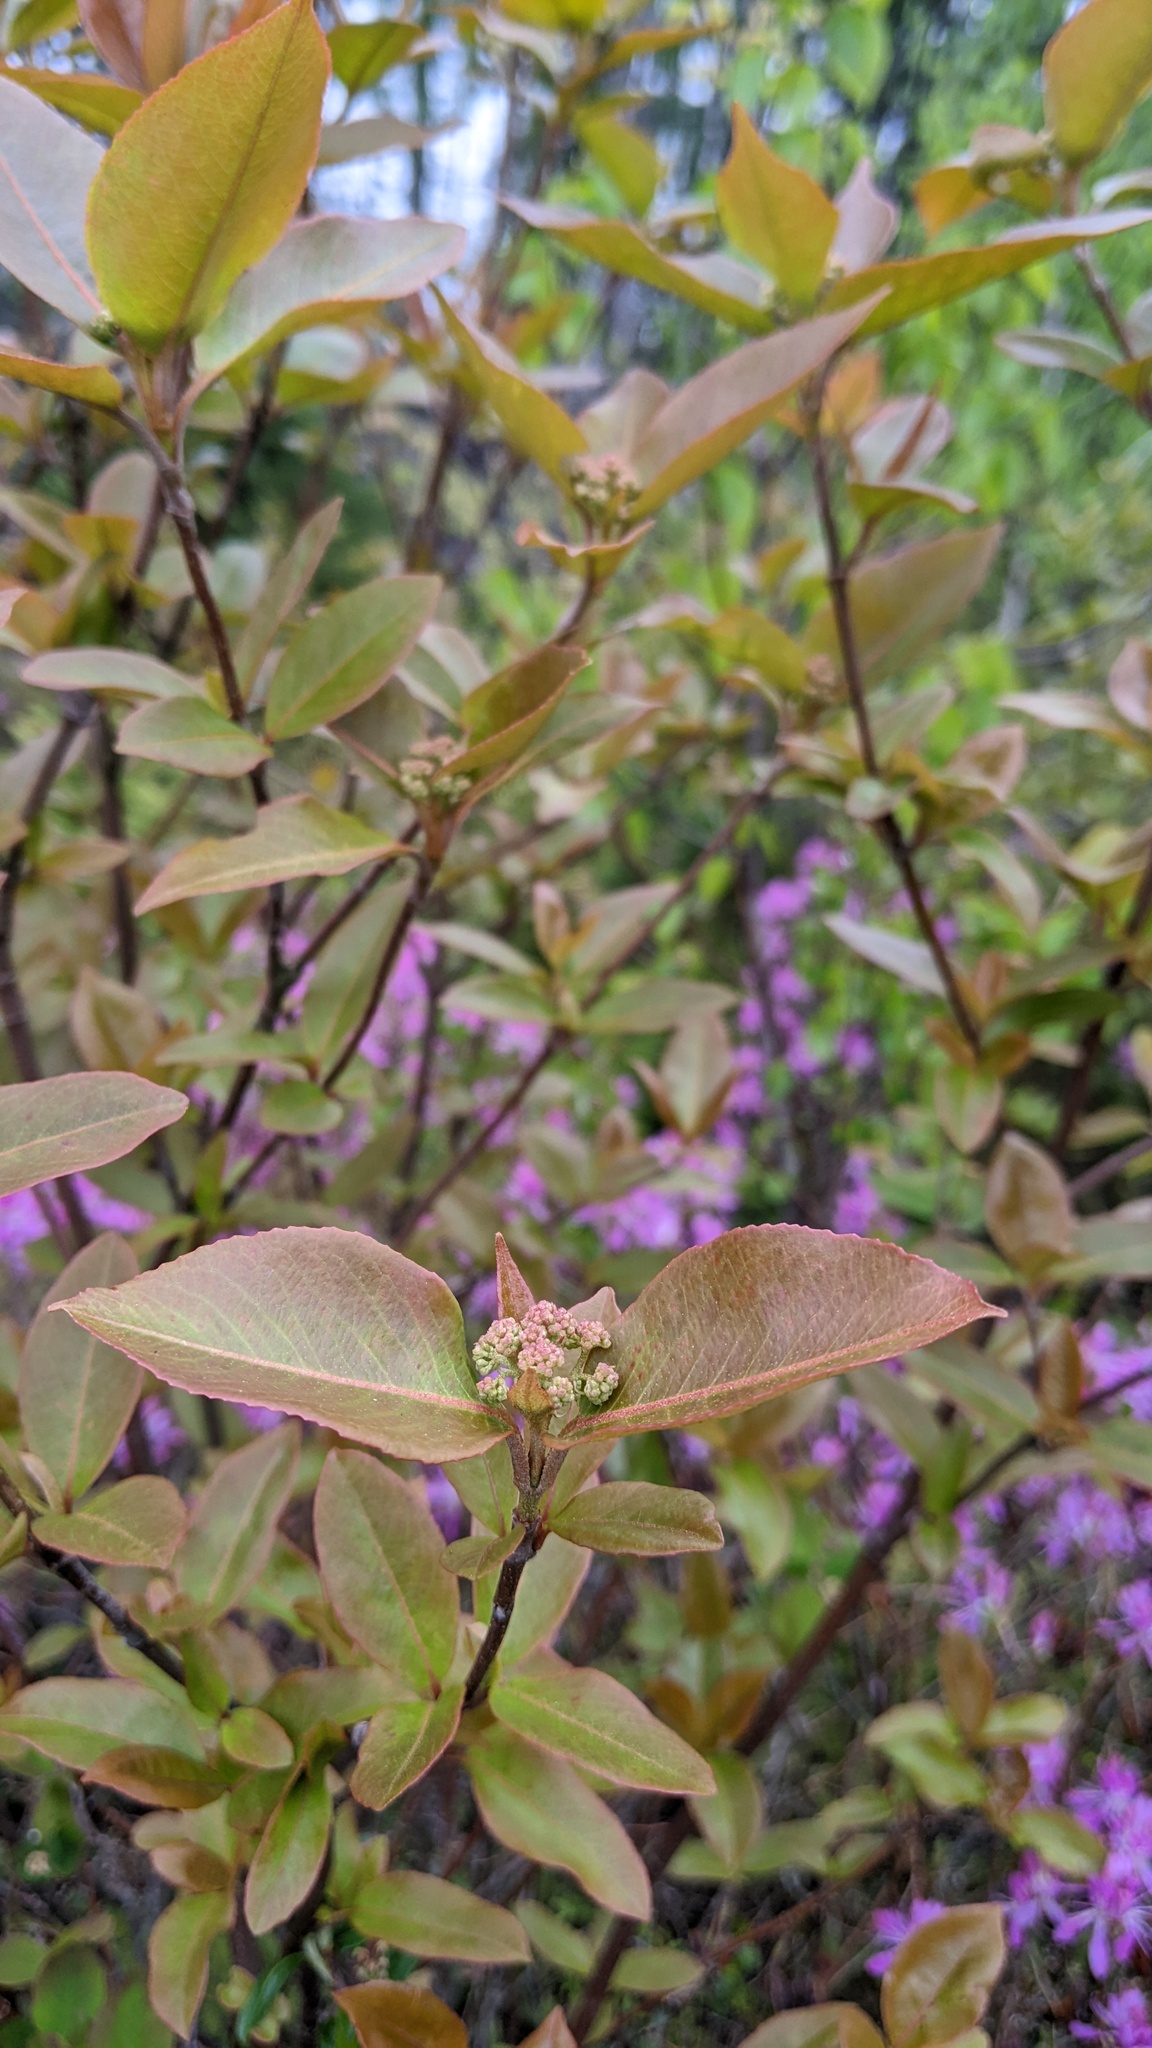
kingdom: Plantae
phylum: Tracheophyta
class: Magnoliopsida
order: Dipsacales
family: Viburnaceae
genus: Viburnum
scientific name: Viburnum cassinoides
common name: Swamp haw
